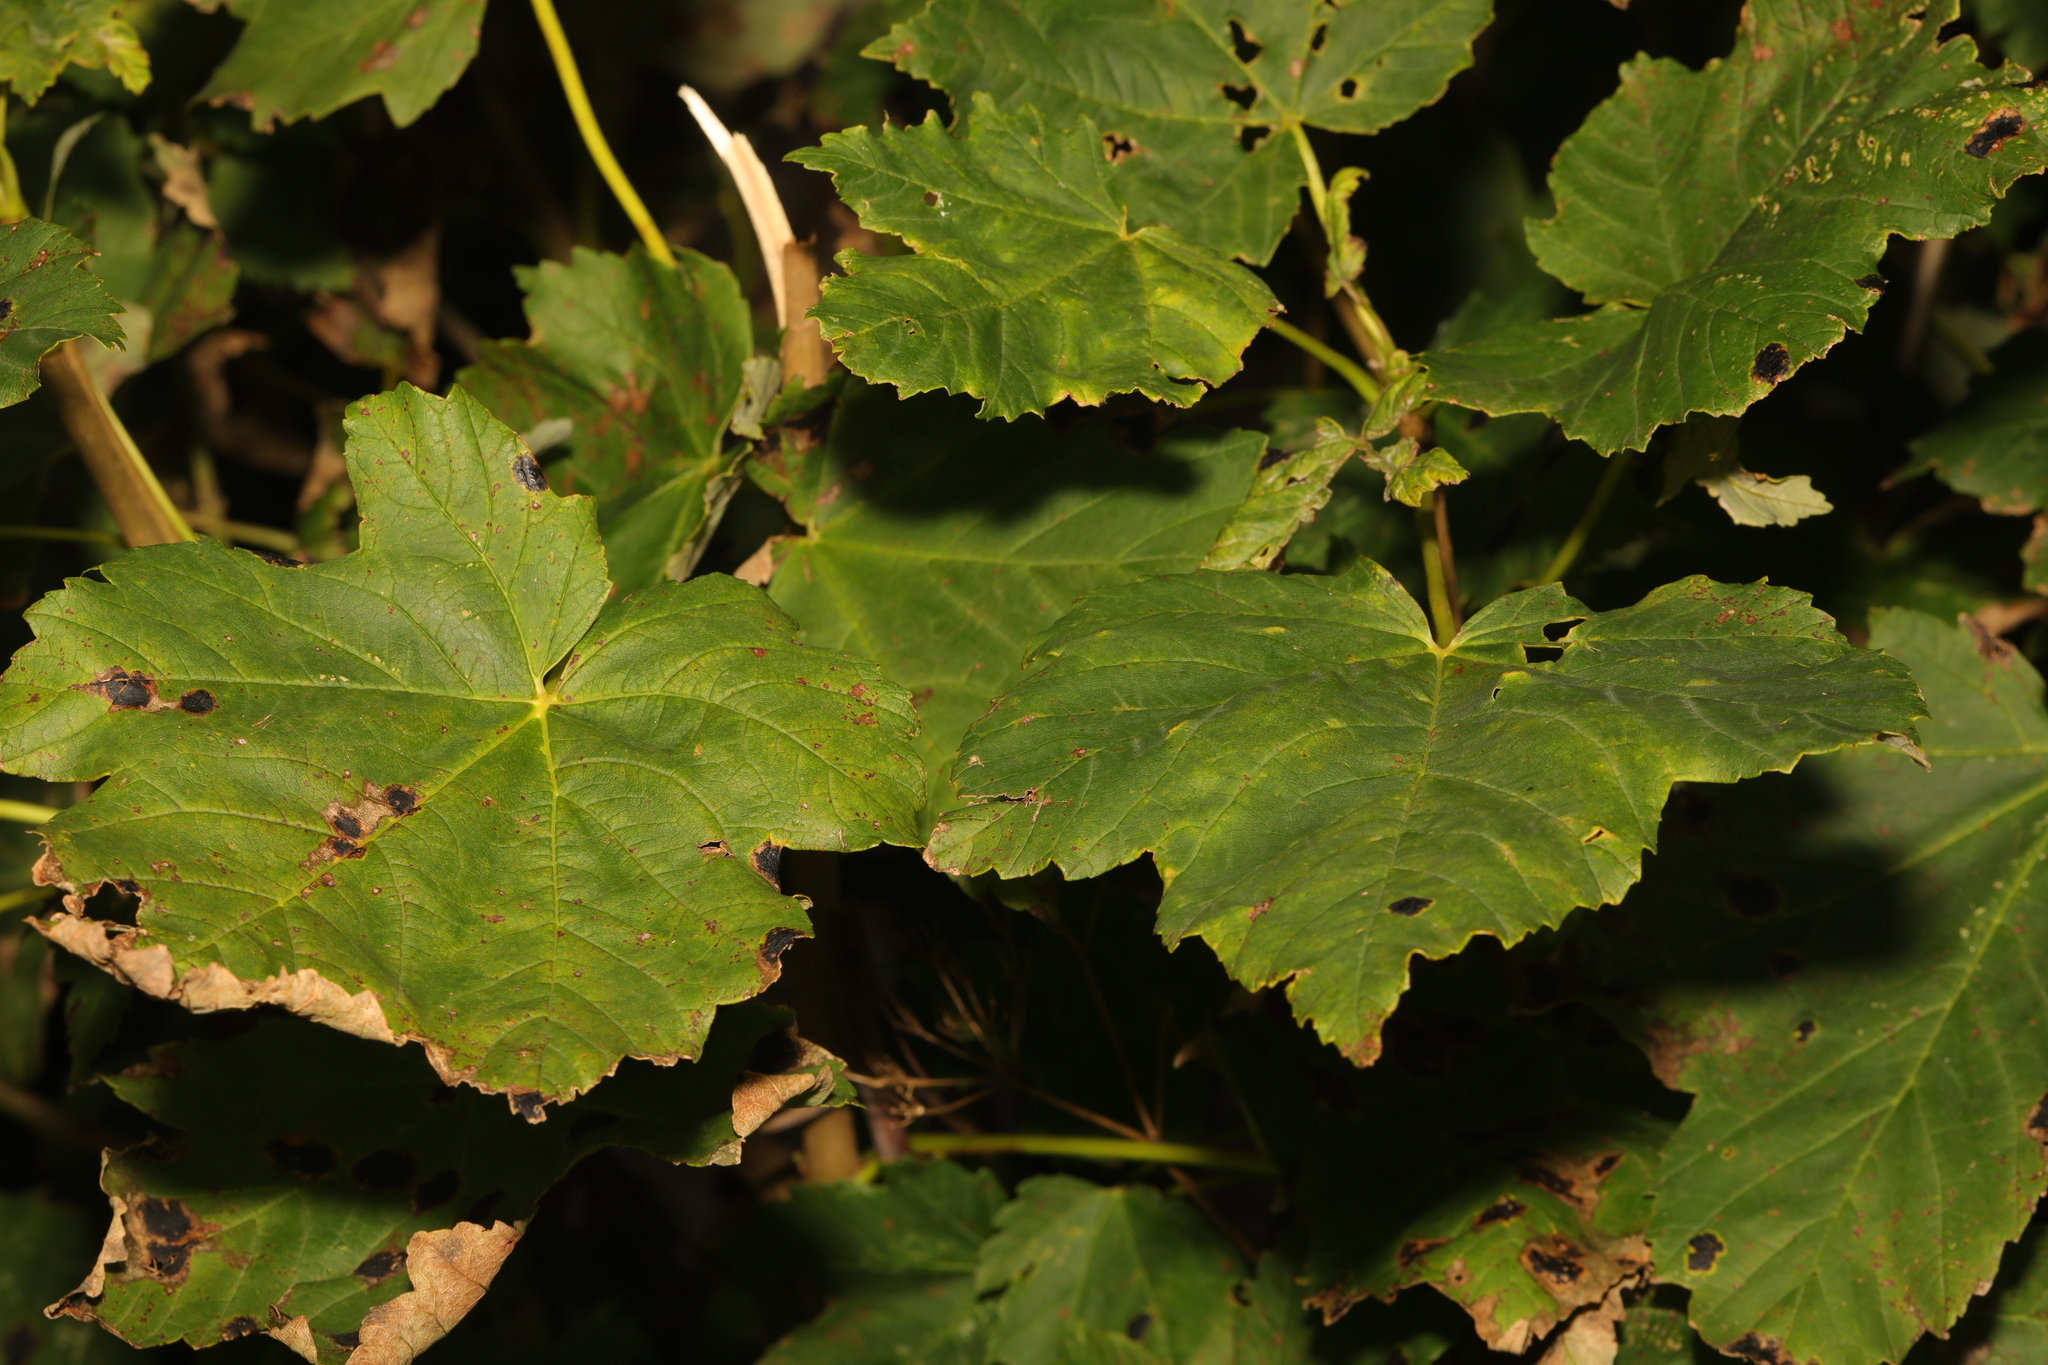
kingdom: Plantae
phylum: Tracheophyta
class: Magnoliopsida
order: Sapindales
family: Sapindaceae
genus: Acer
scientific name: Acer pseudoplatanus
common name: Sycamore
